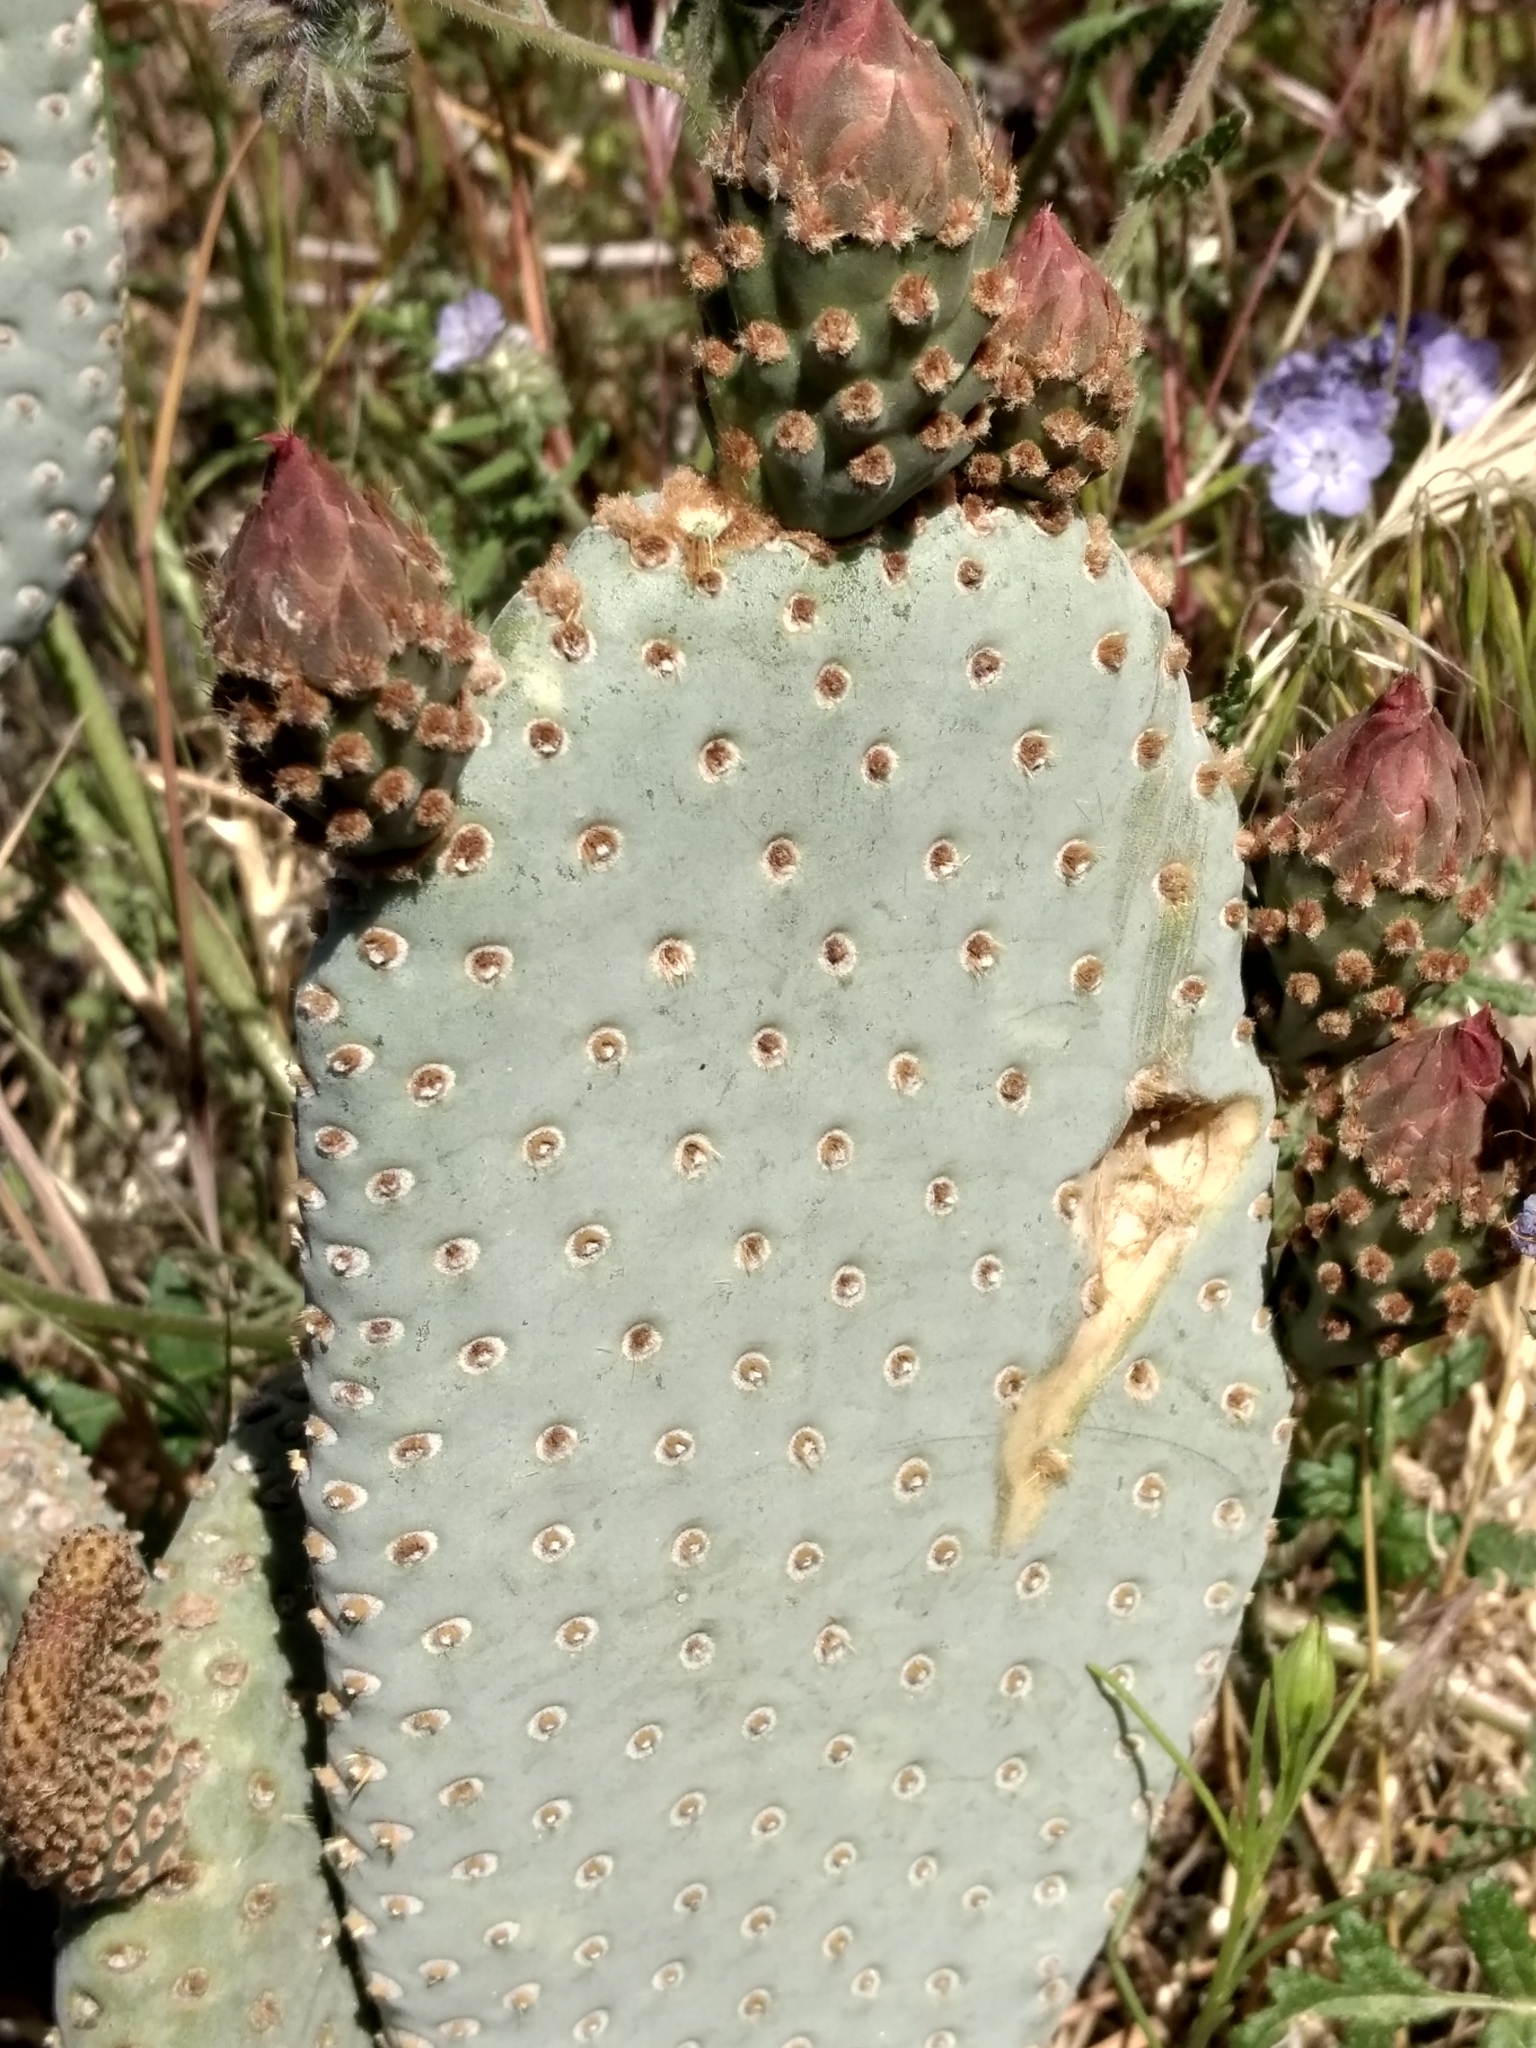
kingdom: Plantae
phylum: Tracheophyta
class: Magnoliopsida
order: Caryophyllales
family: Cactaceae
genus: Opuntia
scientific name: Opuntia basilaris
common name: Beavertail prickly-pear
